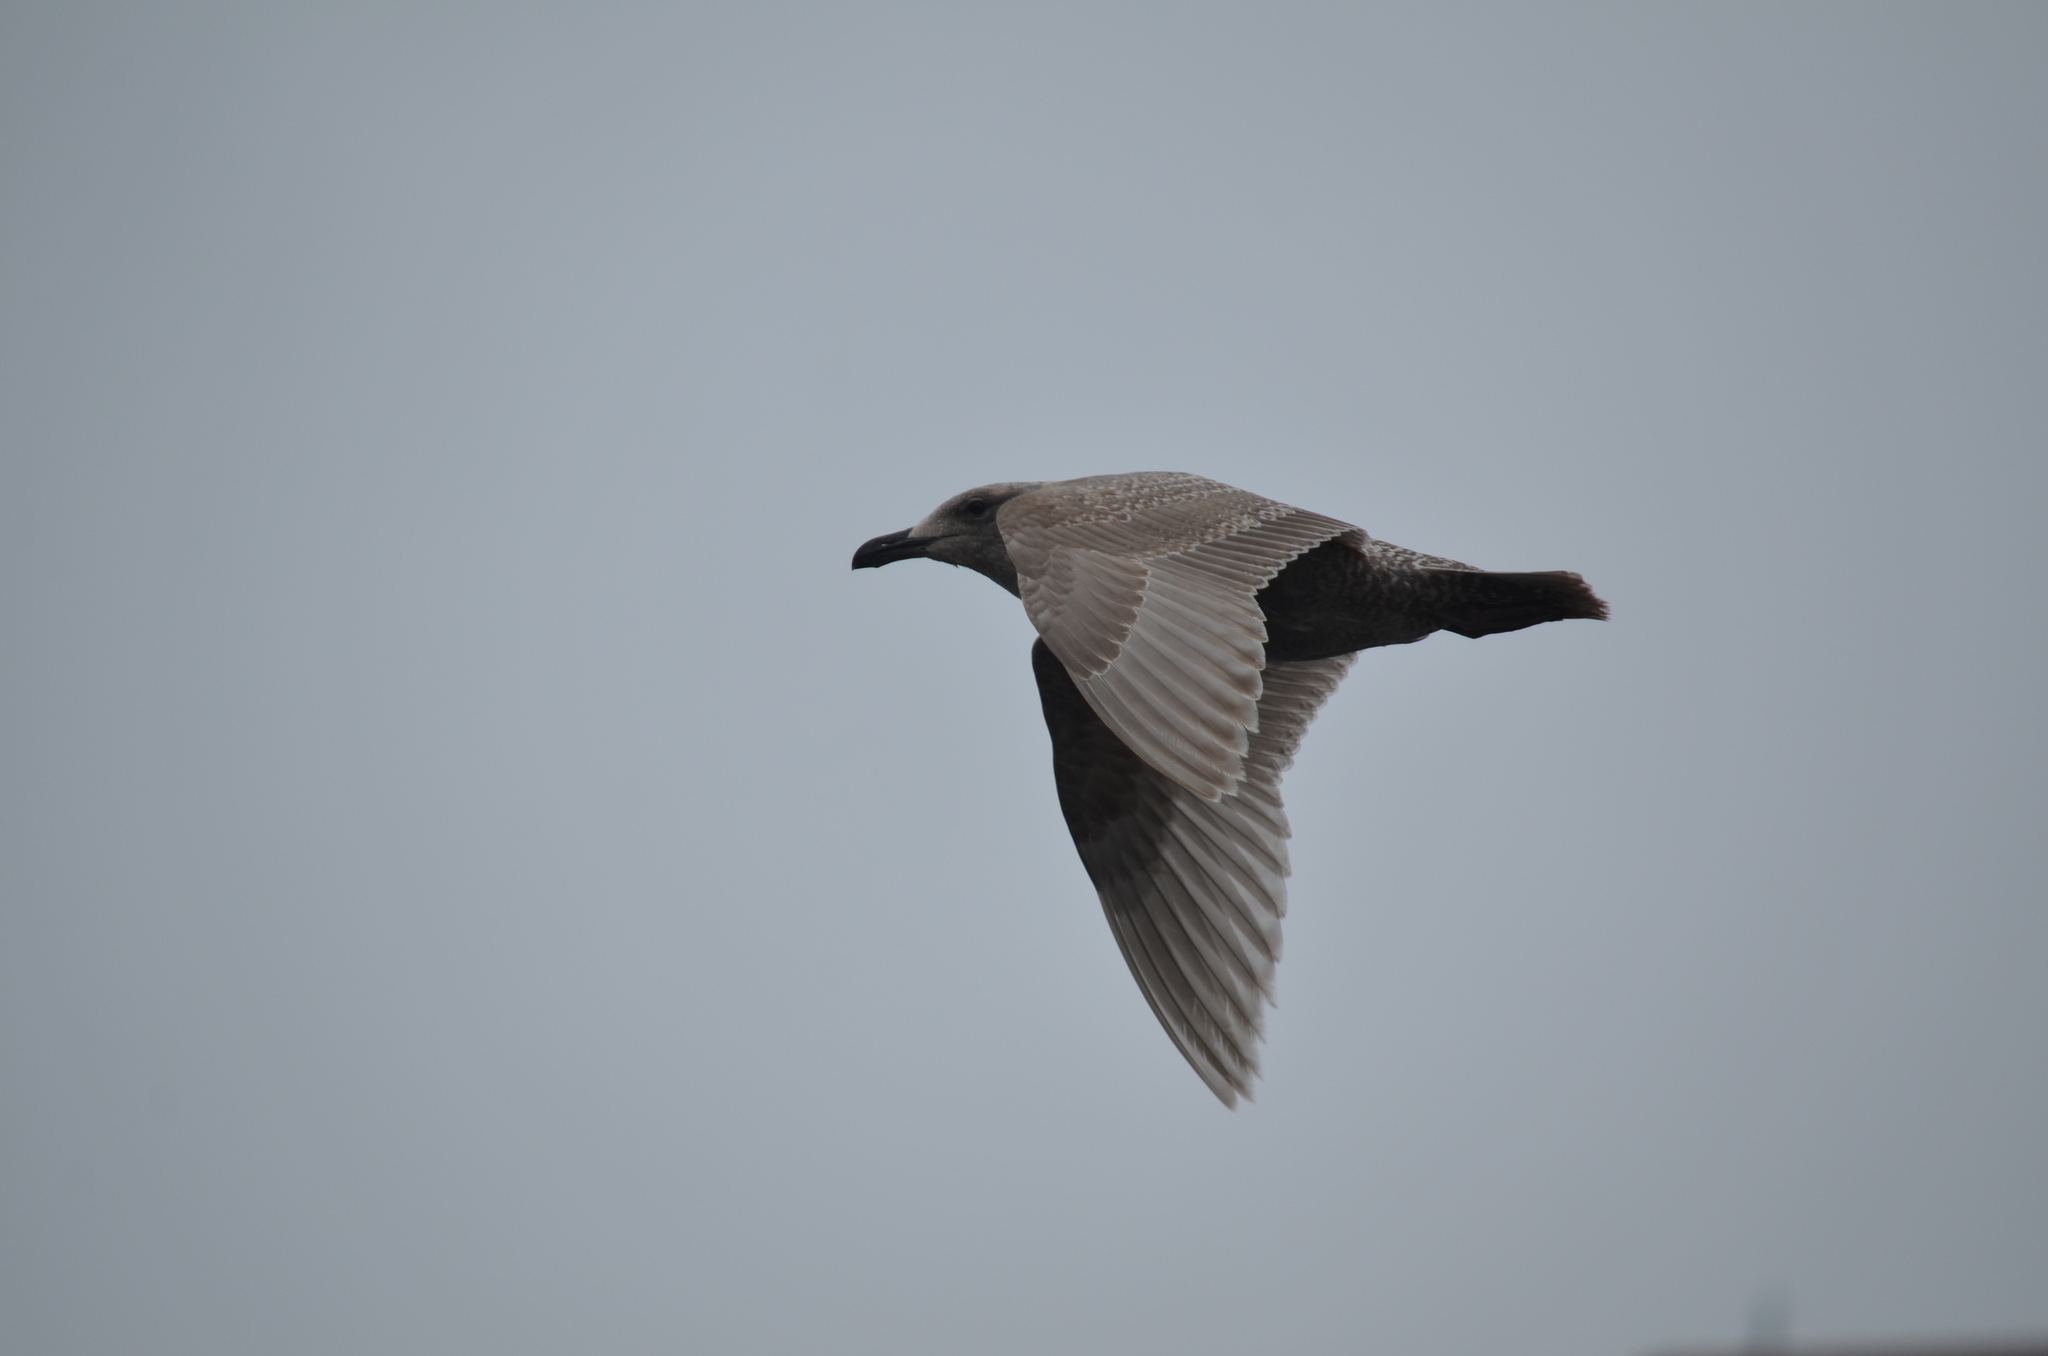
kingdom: Animalia
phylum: Chordata
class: Aves
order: Charadriiformes
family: Laridae
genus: Larus
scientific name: Larus glaucescens
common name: Glaucous-winged gull
